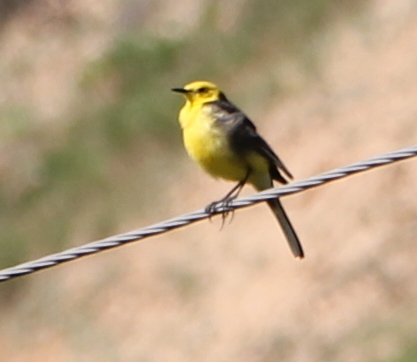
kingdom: Animalia
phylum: Chordata
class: Aves
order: Passeriformes
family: Motacillidae
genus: Motacilla
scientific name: Motacilla citreola
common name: Citrine wagtail
